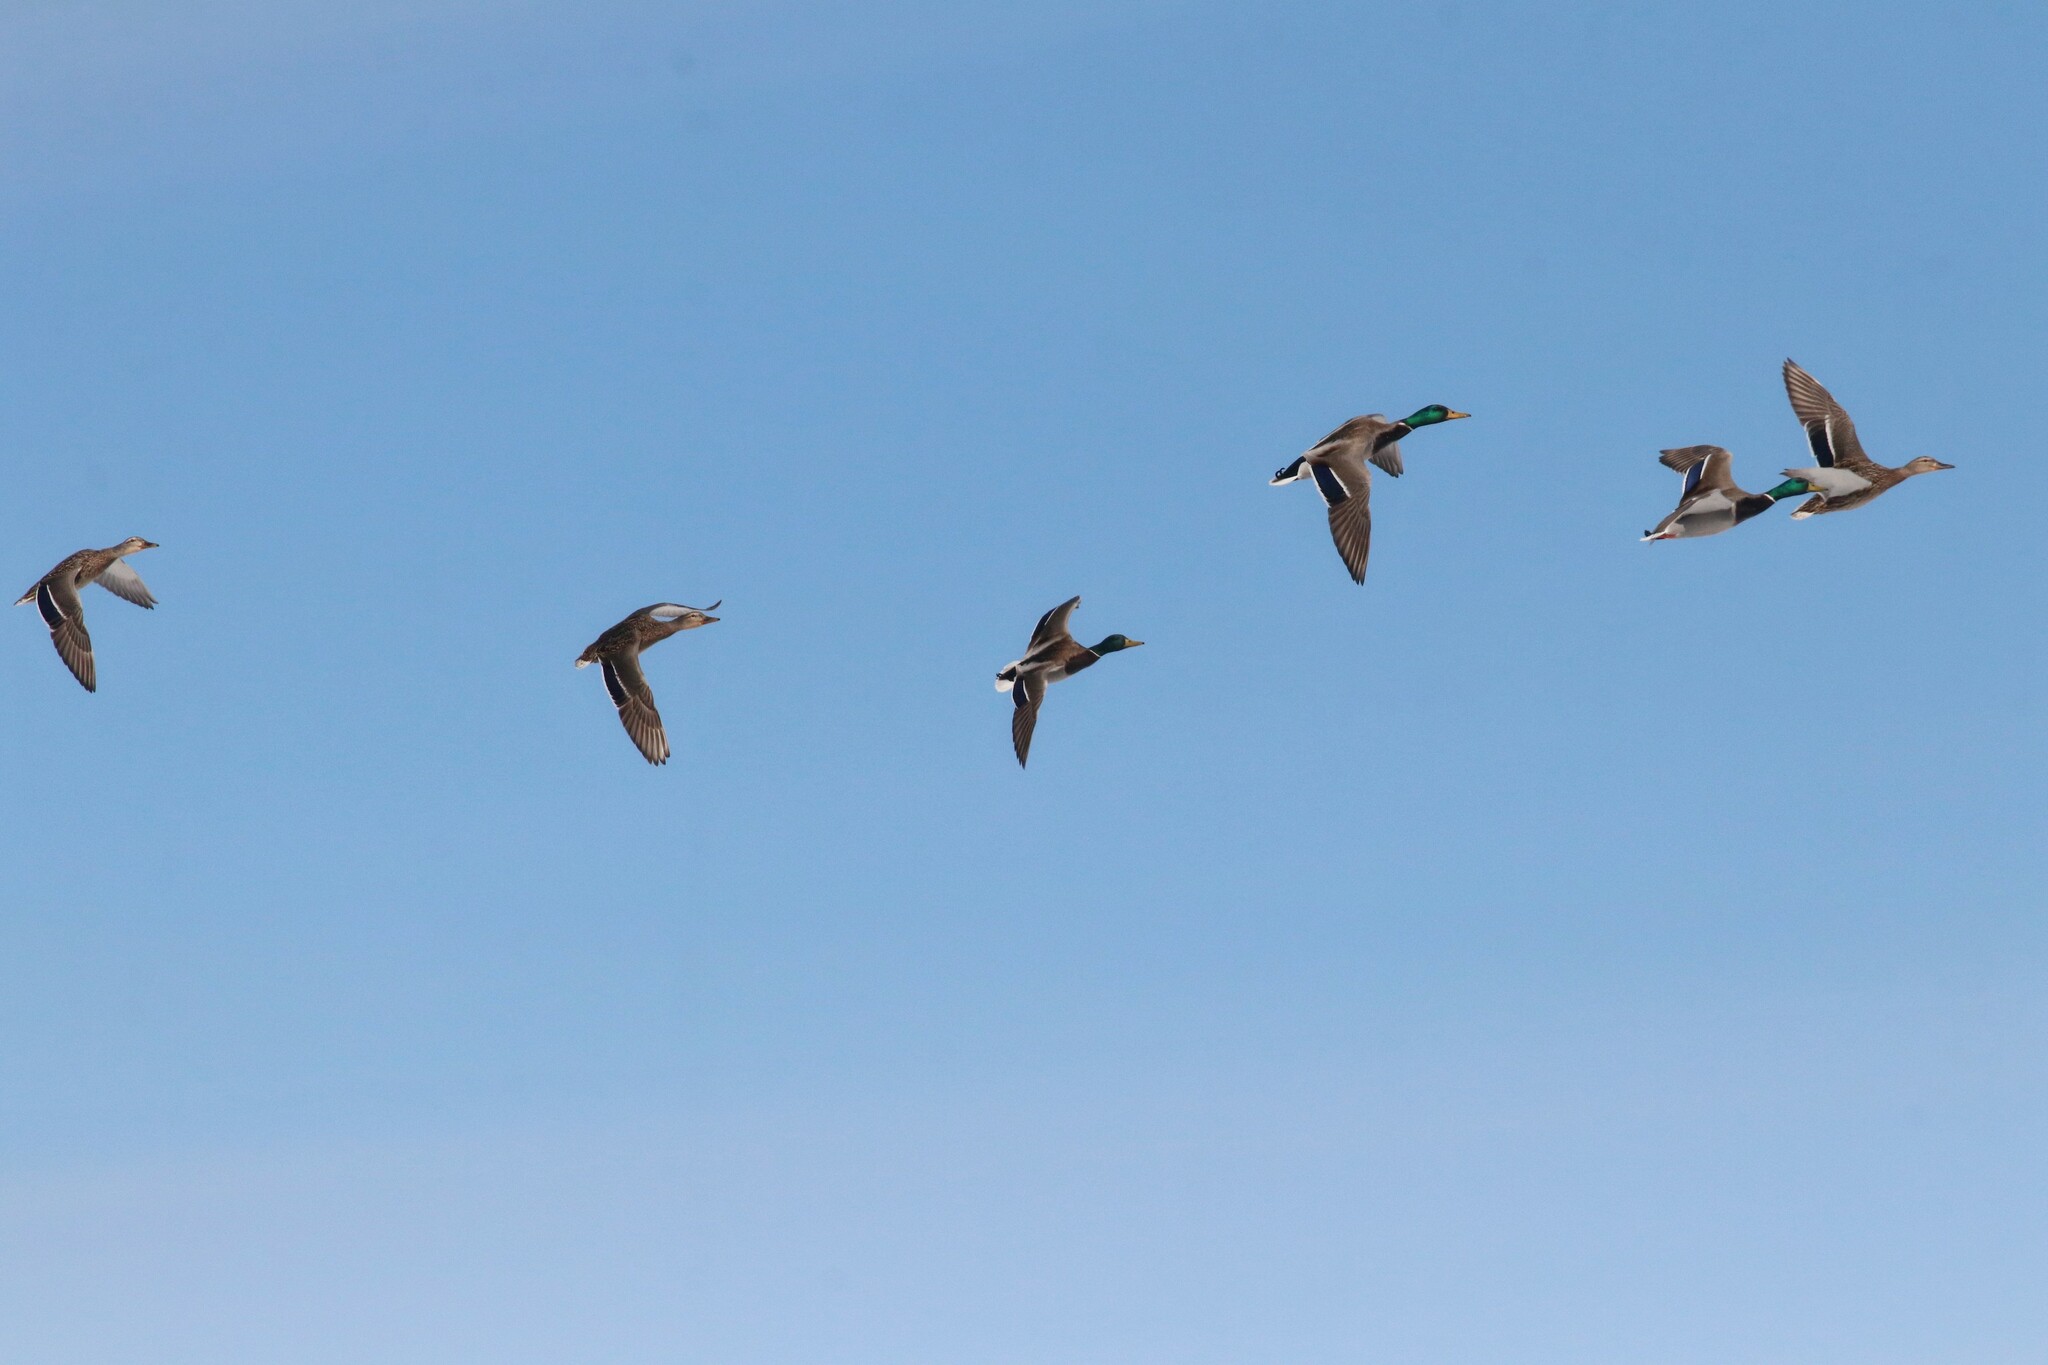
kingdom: Animalia
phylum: Chordata
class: Aves
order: Anseriformes
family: Anatidae
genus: Anas
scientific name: Anas platyrhynchos
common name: Mallard
